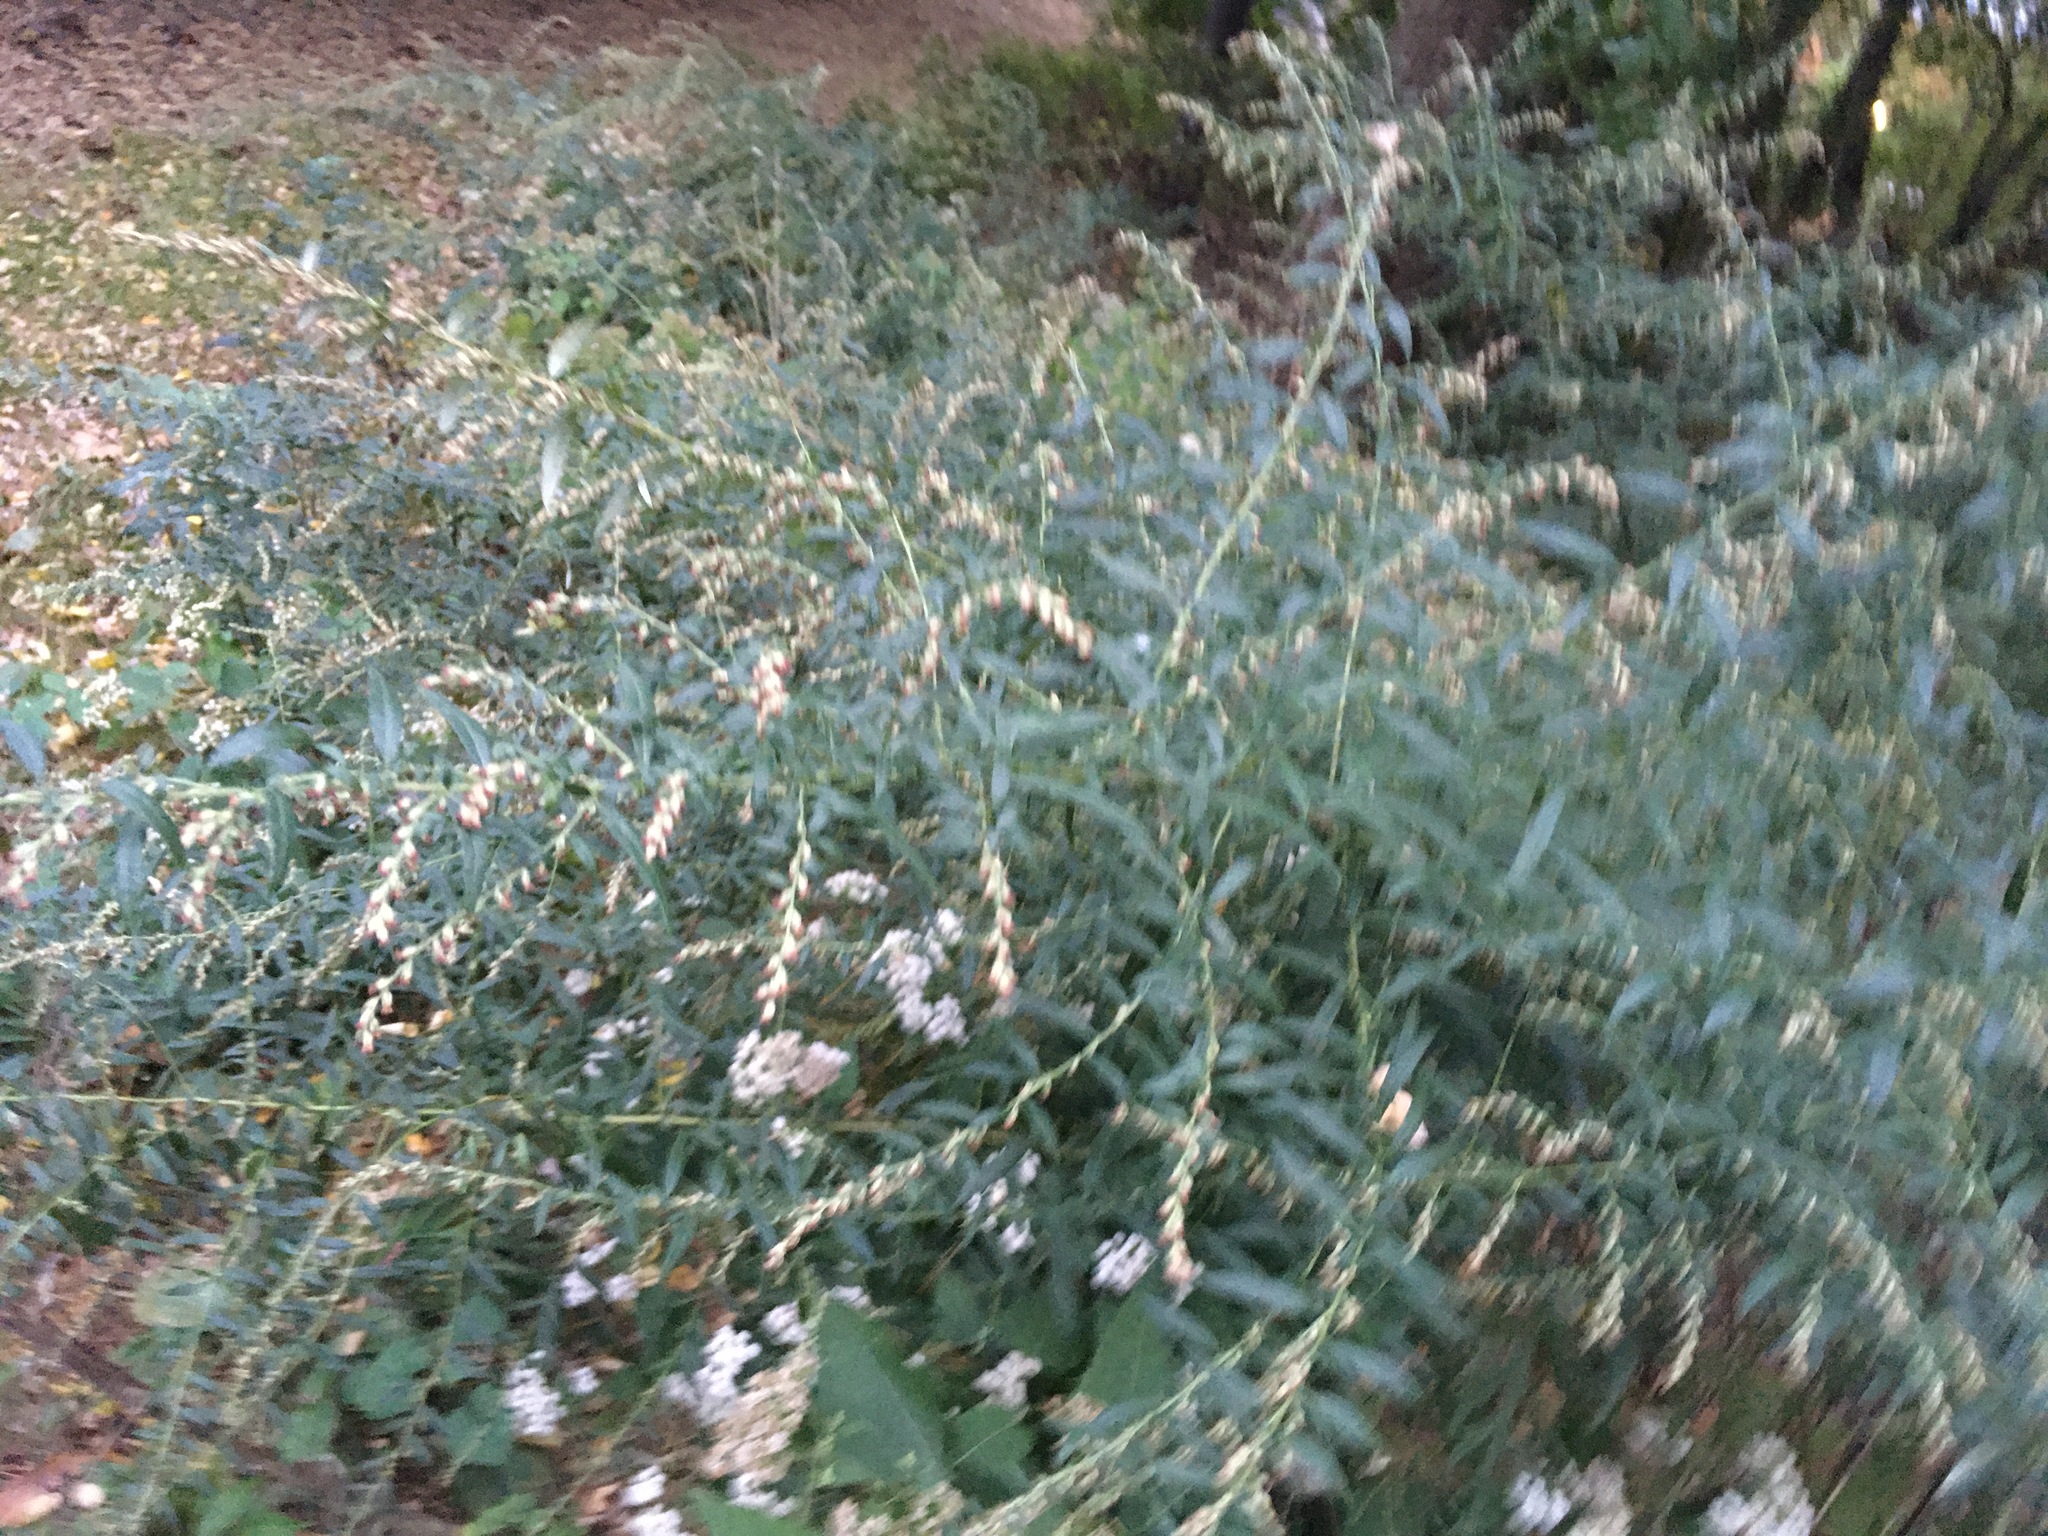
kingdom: Plantae
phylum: Tracheophyta
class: Magnoliopsida
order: Asterales
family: Asteraceae
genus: Artemisia
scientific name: Artemisia vulgaris
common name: Mugwort
